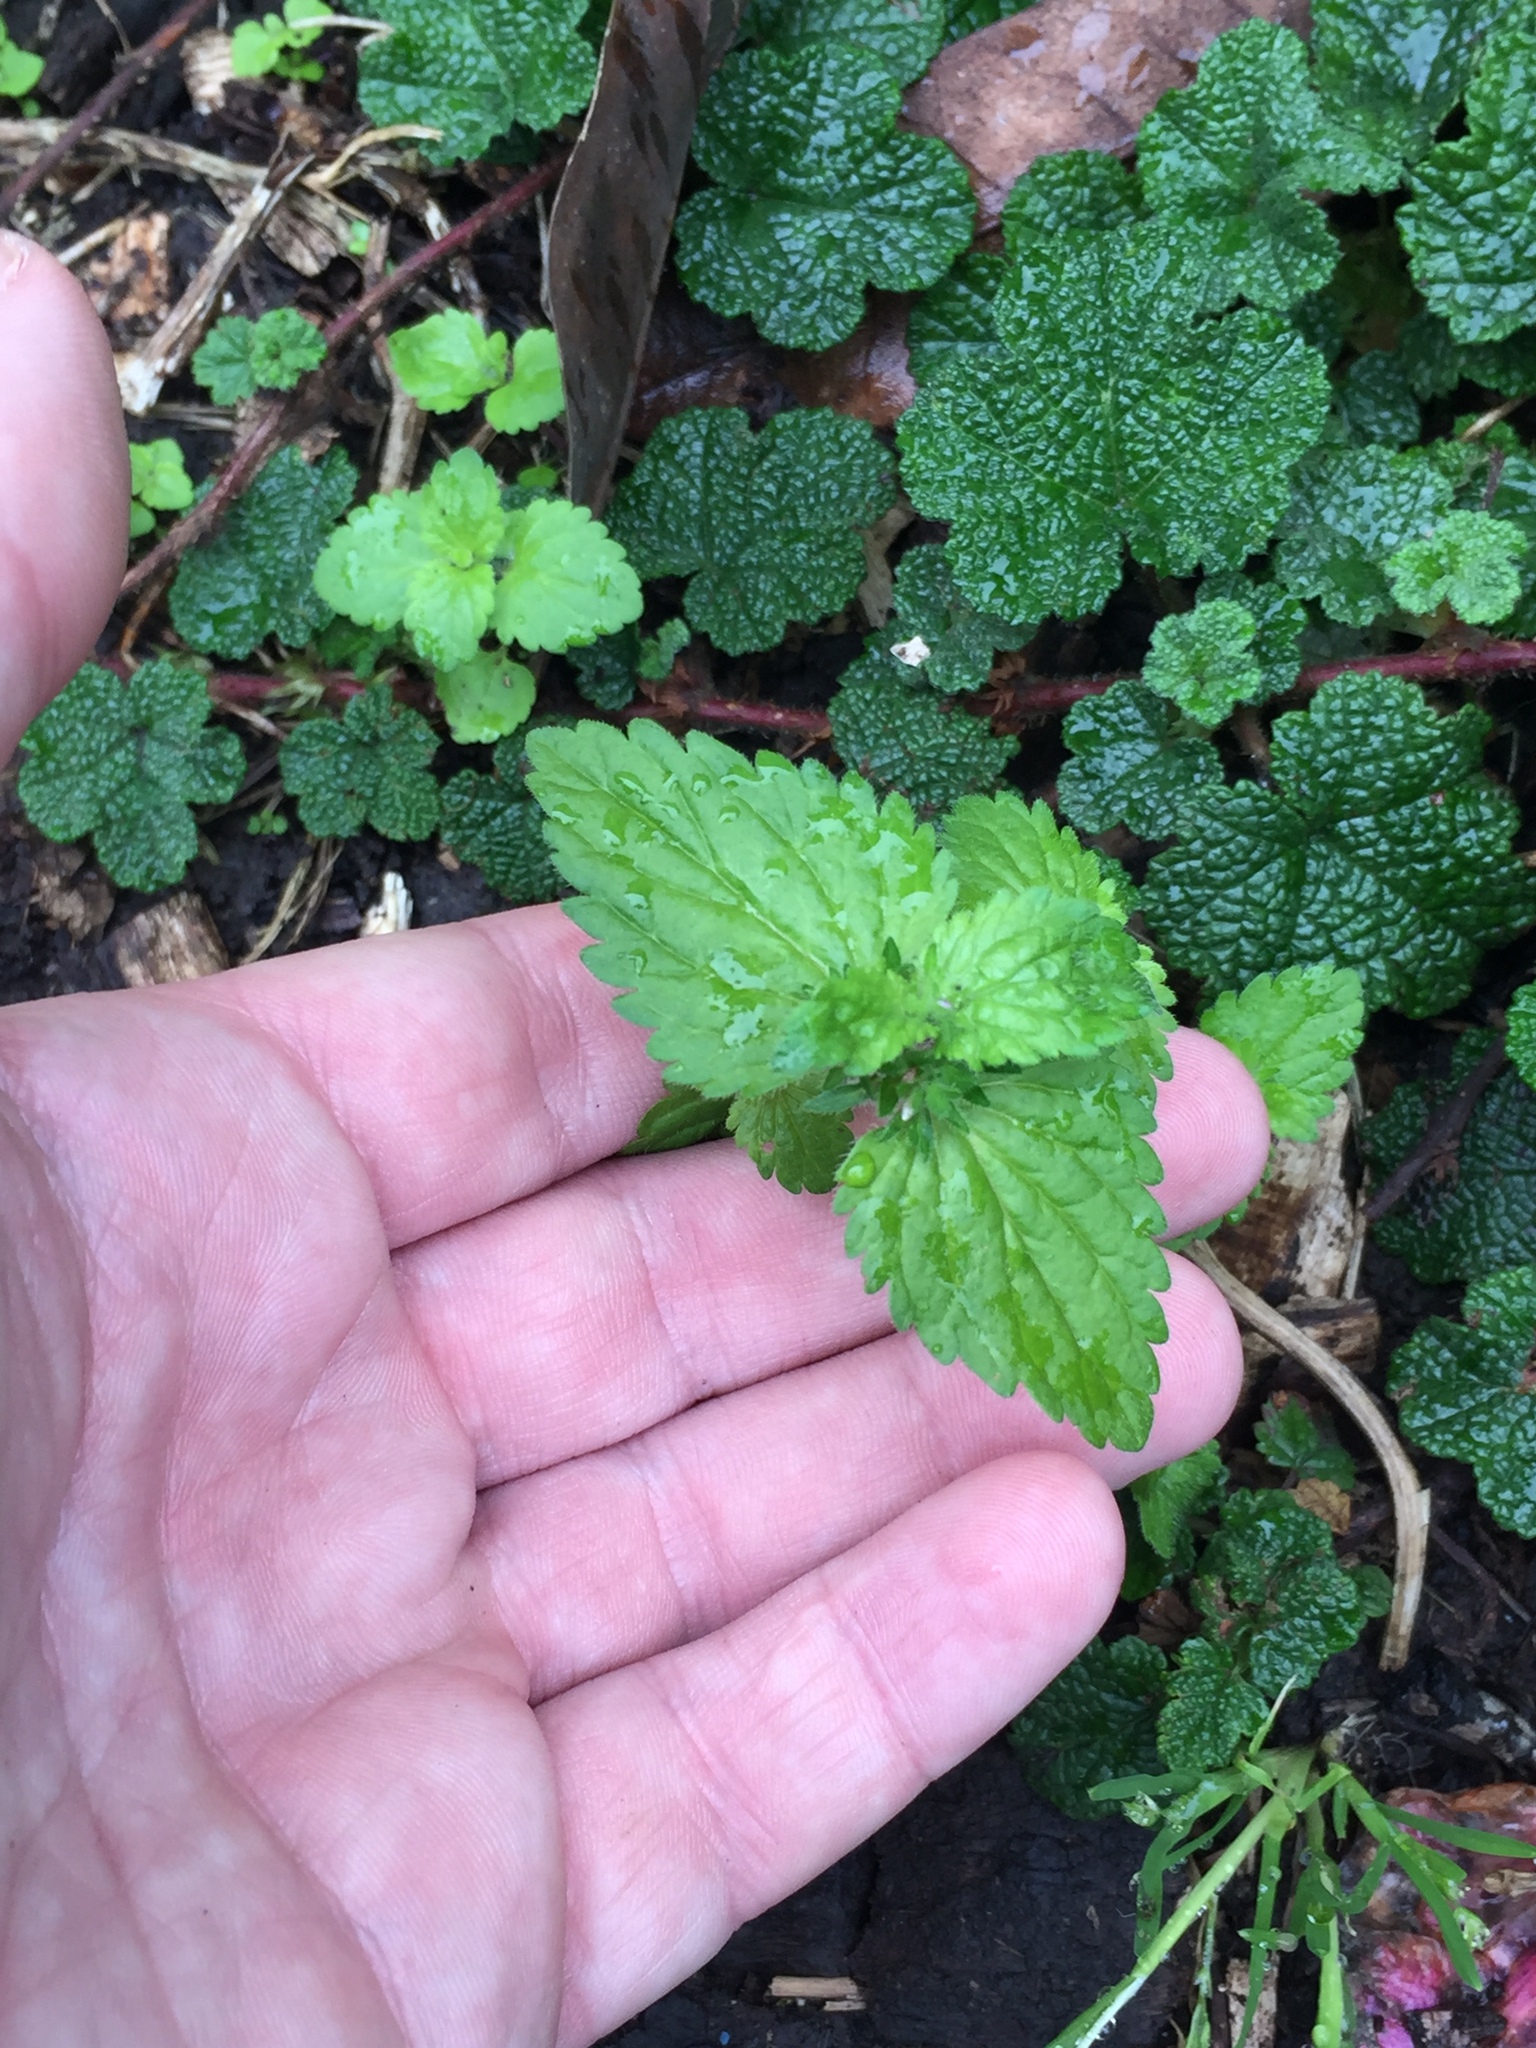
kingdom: Plantae
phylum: Tracheophyta
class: Magnoliopsida
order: Lamiales
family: Plantaginaceae
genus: Veronica
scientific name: Veronica javanica
